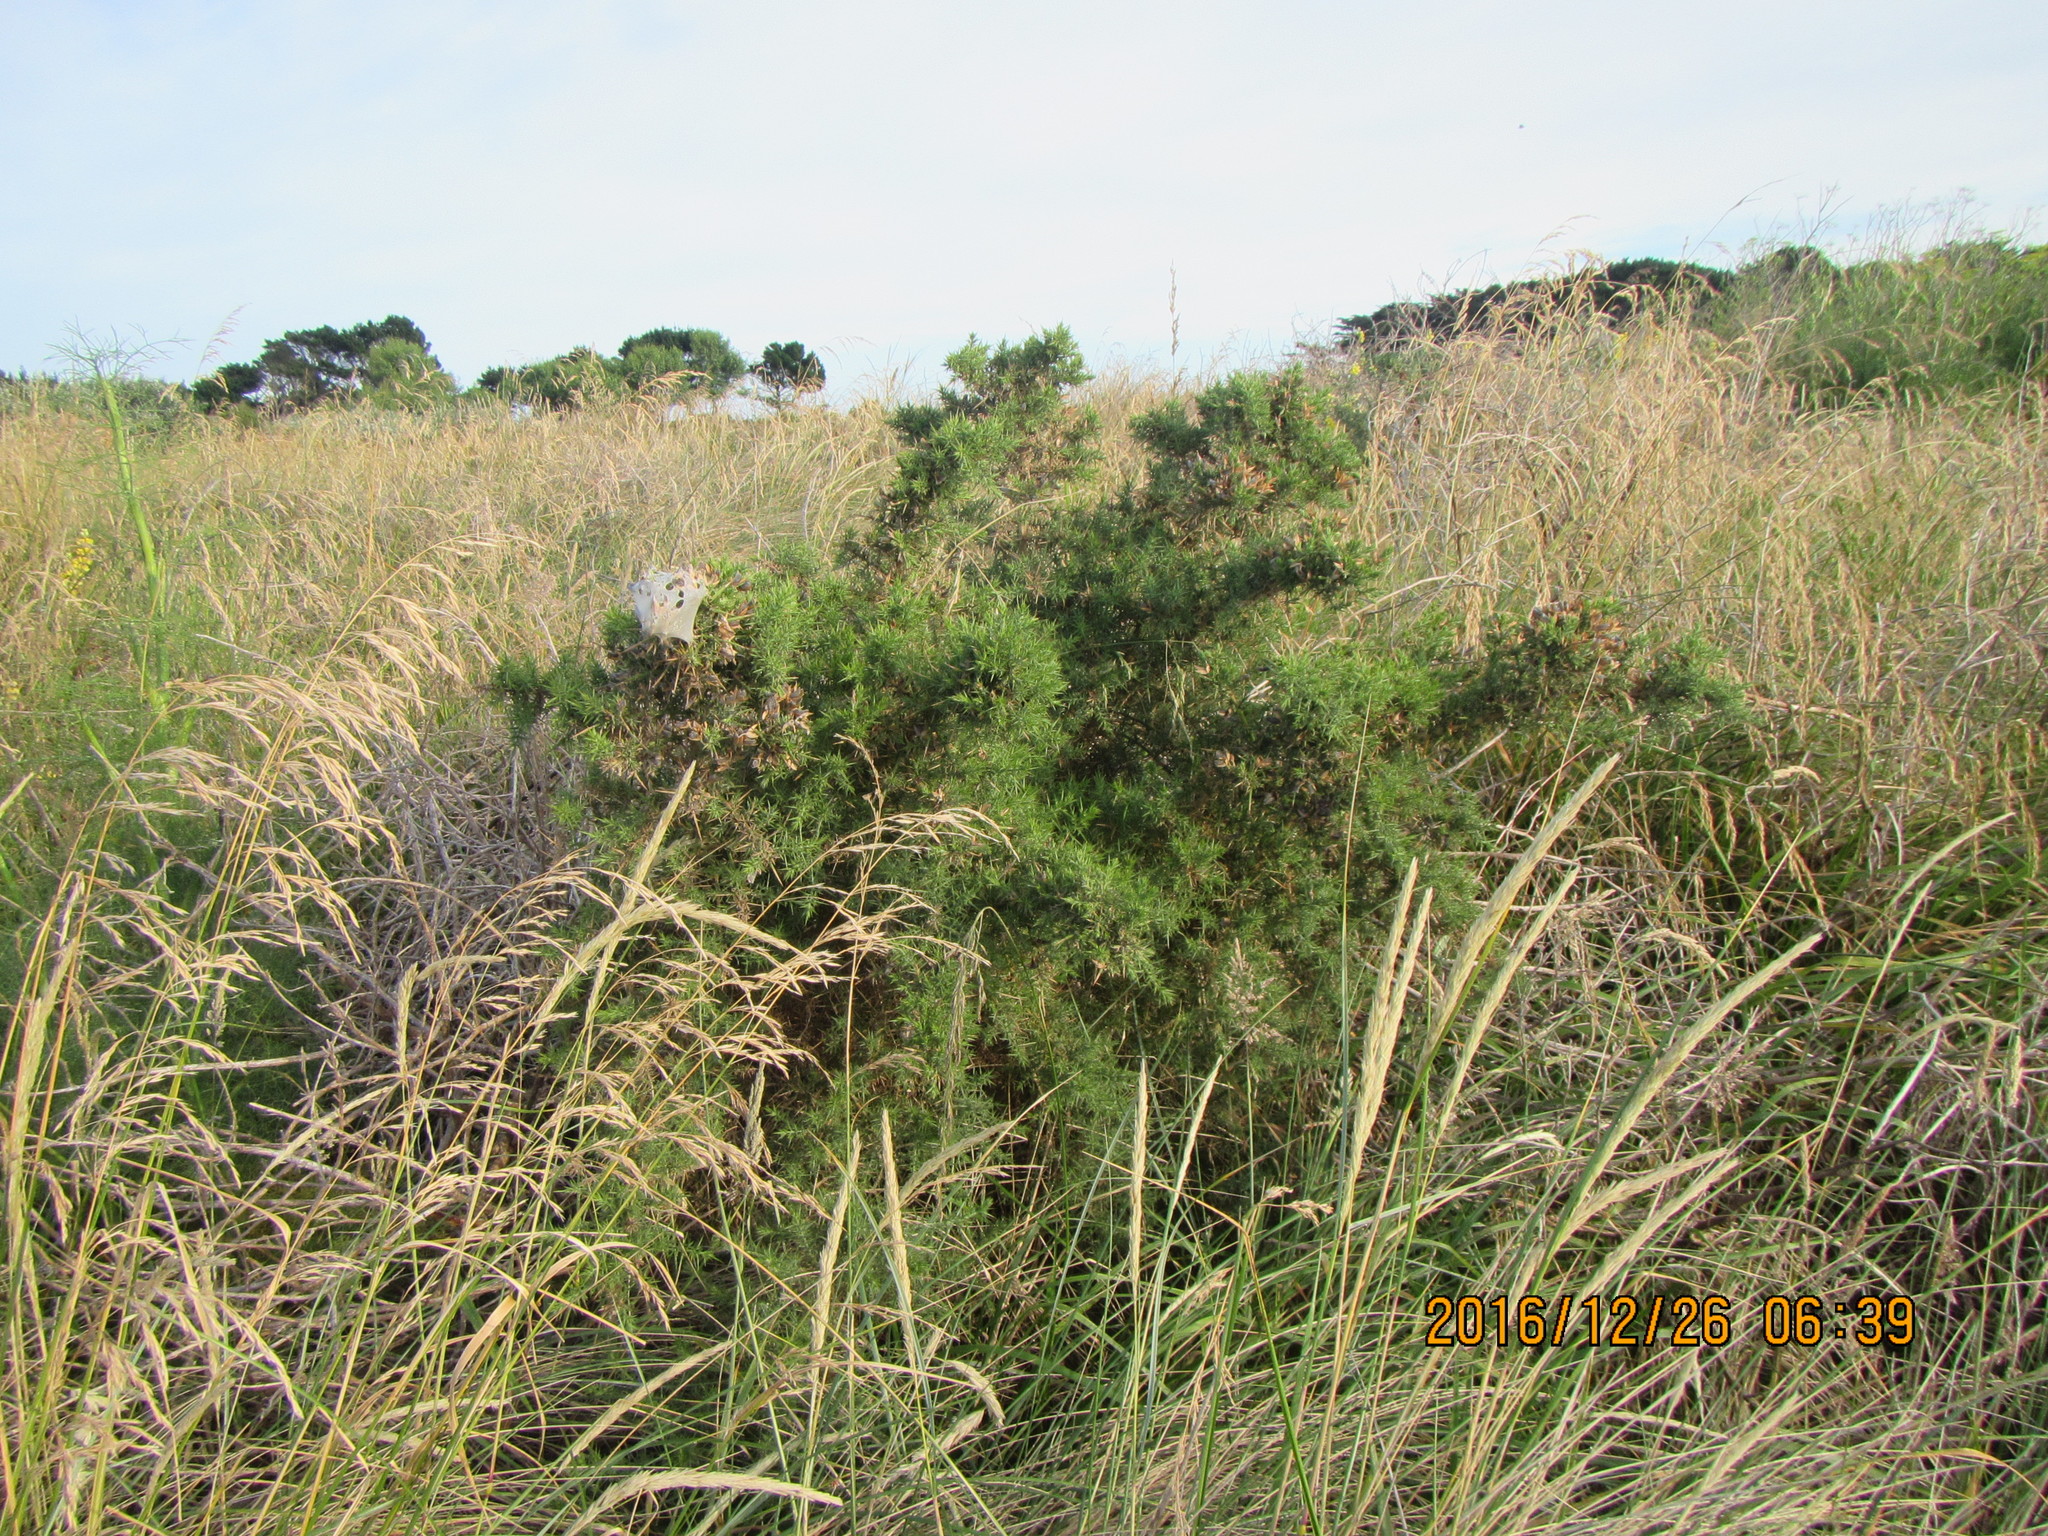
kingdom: Plantae
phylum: Tracheophyta
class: Magnoliopsida
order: Fabales
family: Fabaceae
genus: Ulex
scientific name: Ulex europaeus
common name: Common gorse
